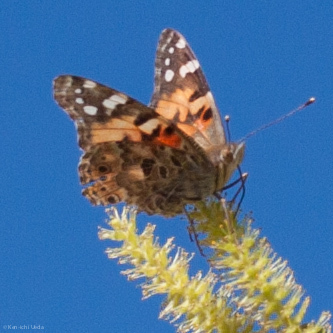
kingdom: Animalia
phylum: Arthropoda
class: Insecta
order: Lepidoptera
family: Nymphalidae
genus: Vanessa
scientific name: Vanessa cardui
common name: Painted lady
